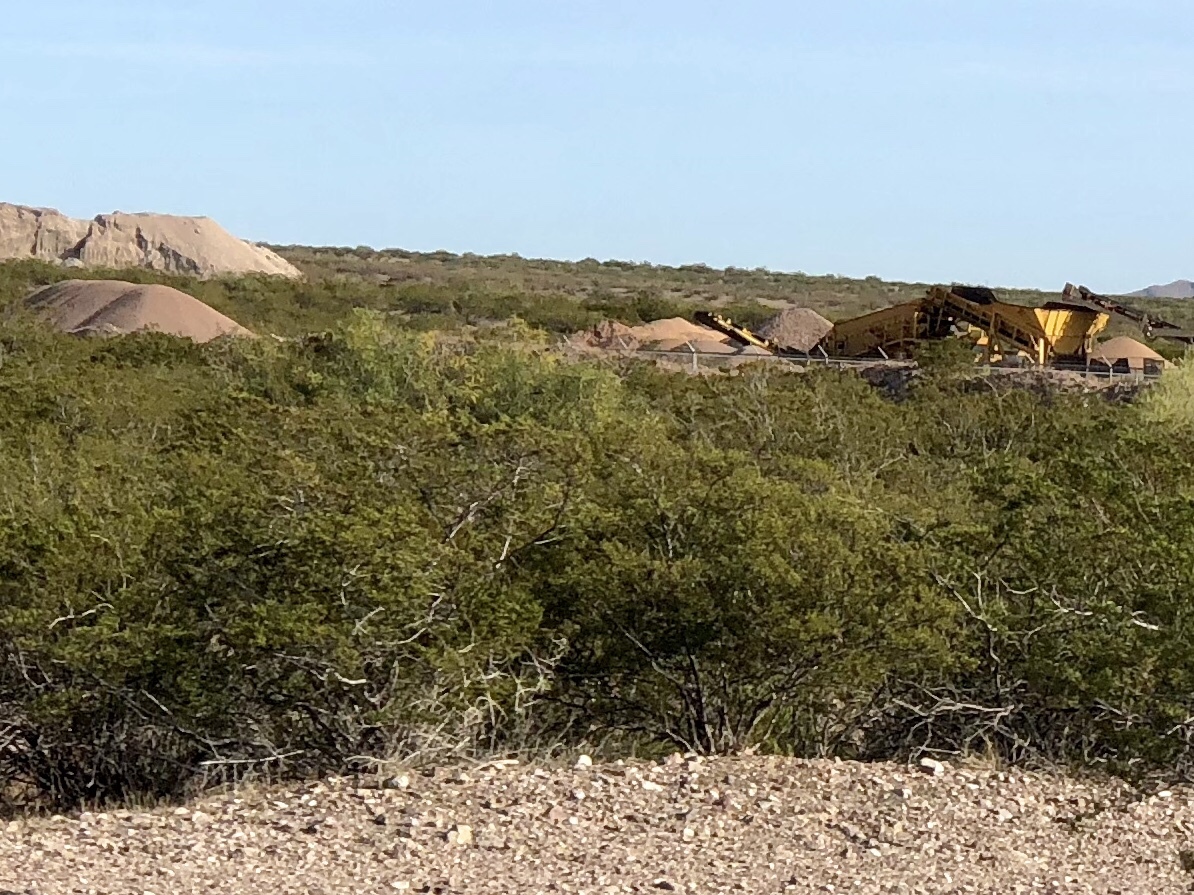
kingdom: Plantae
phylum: Tracheophyta
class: Magnoliopsida
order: Zygophyllales
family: Zygophyllaceae
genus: Larrea
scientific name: Larrea tridentata
